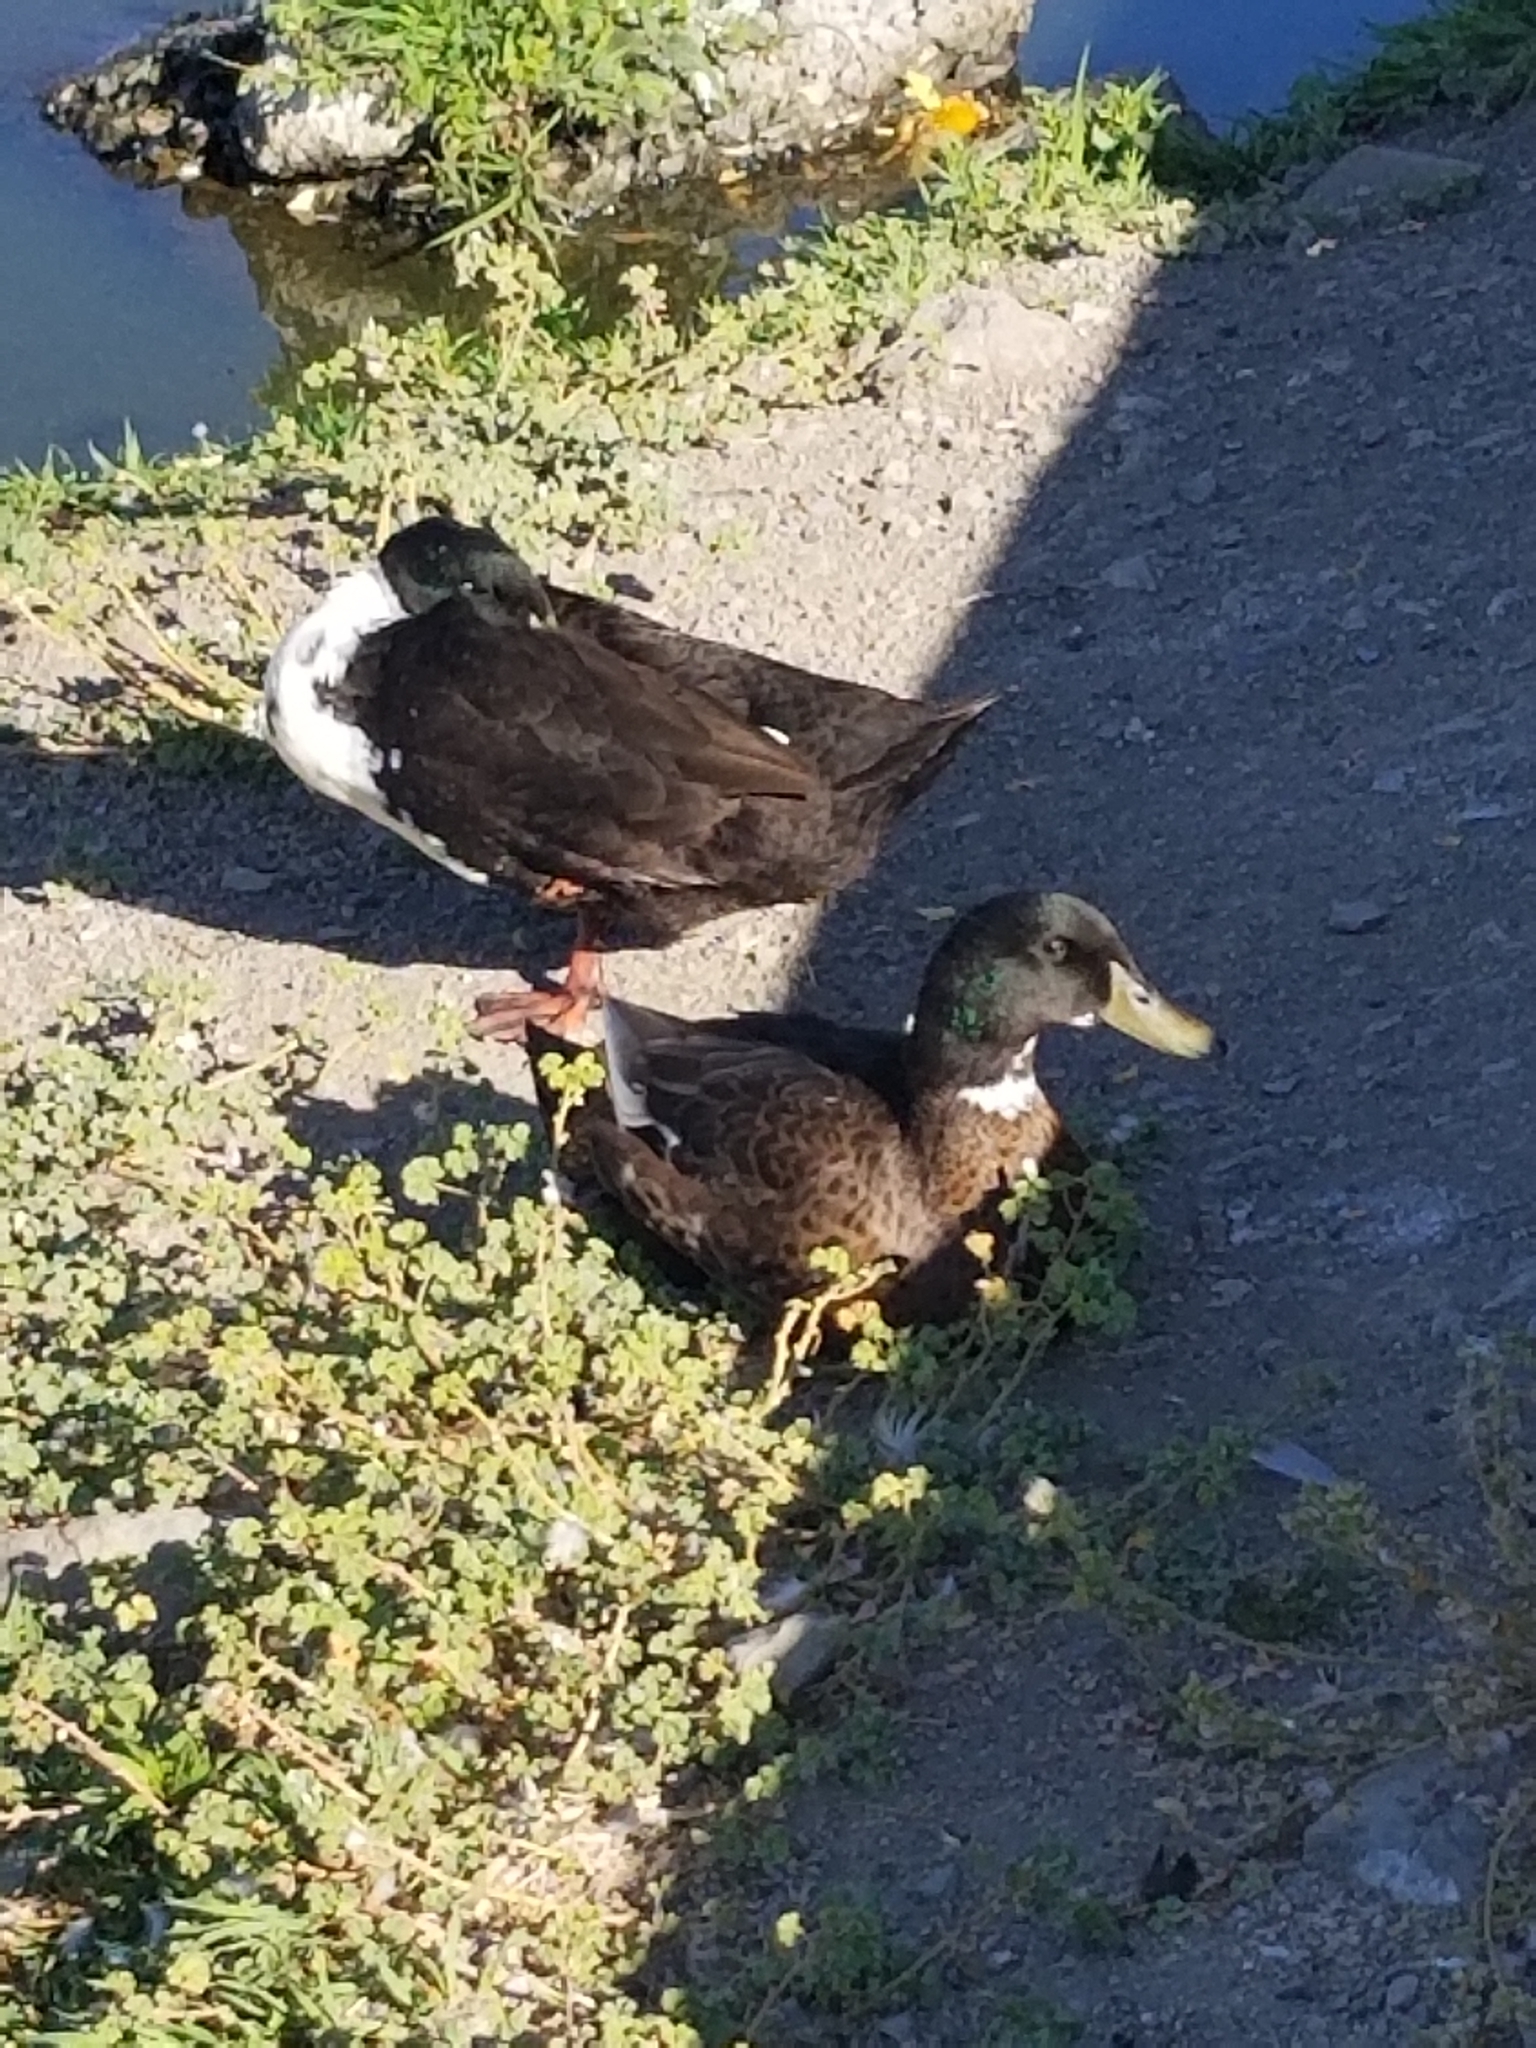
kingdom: Animalia
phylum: Chordata
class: Aves
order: Anseriformes
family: Anatidae
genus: Anas
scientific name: Anas platyrhynchos
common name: Mallard
